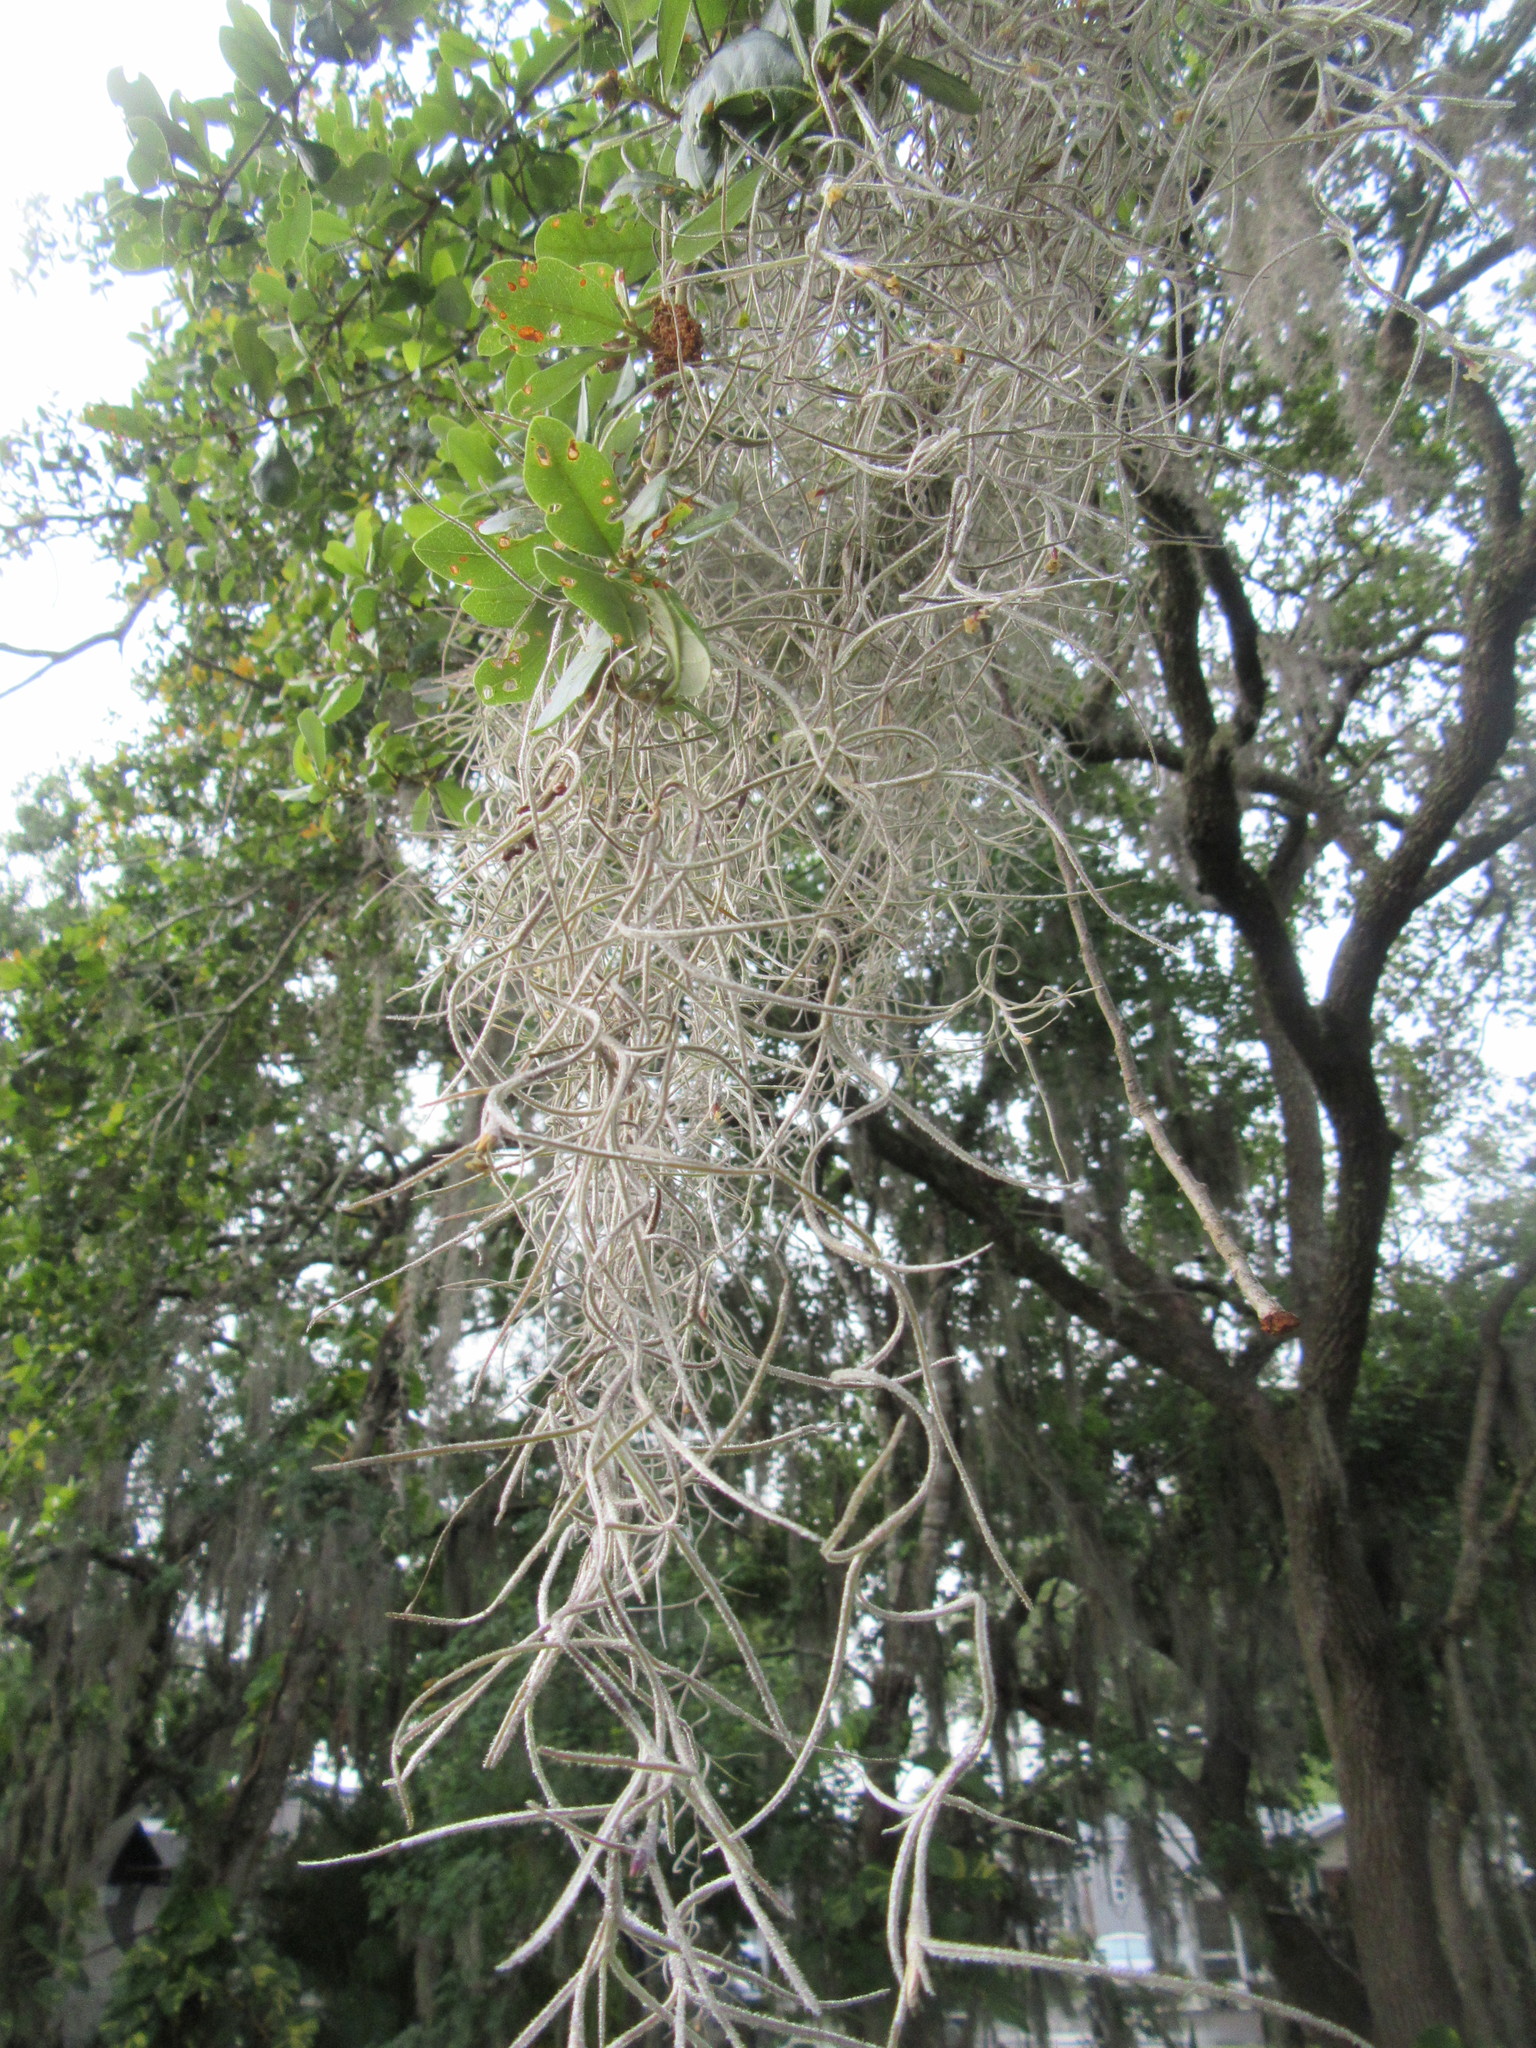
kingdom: Plantae
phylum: Tracheophyta
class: Liliopsida
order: Poales
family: Bromeliaceae
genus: Tillandsia
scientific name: Tillandsia usneoides
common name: Spanish moss
